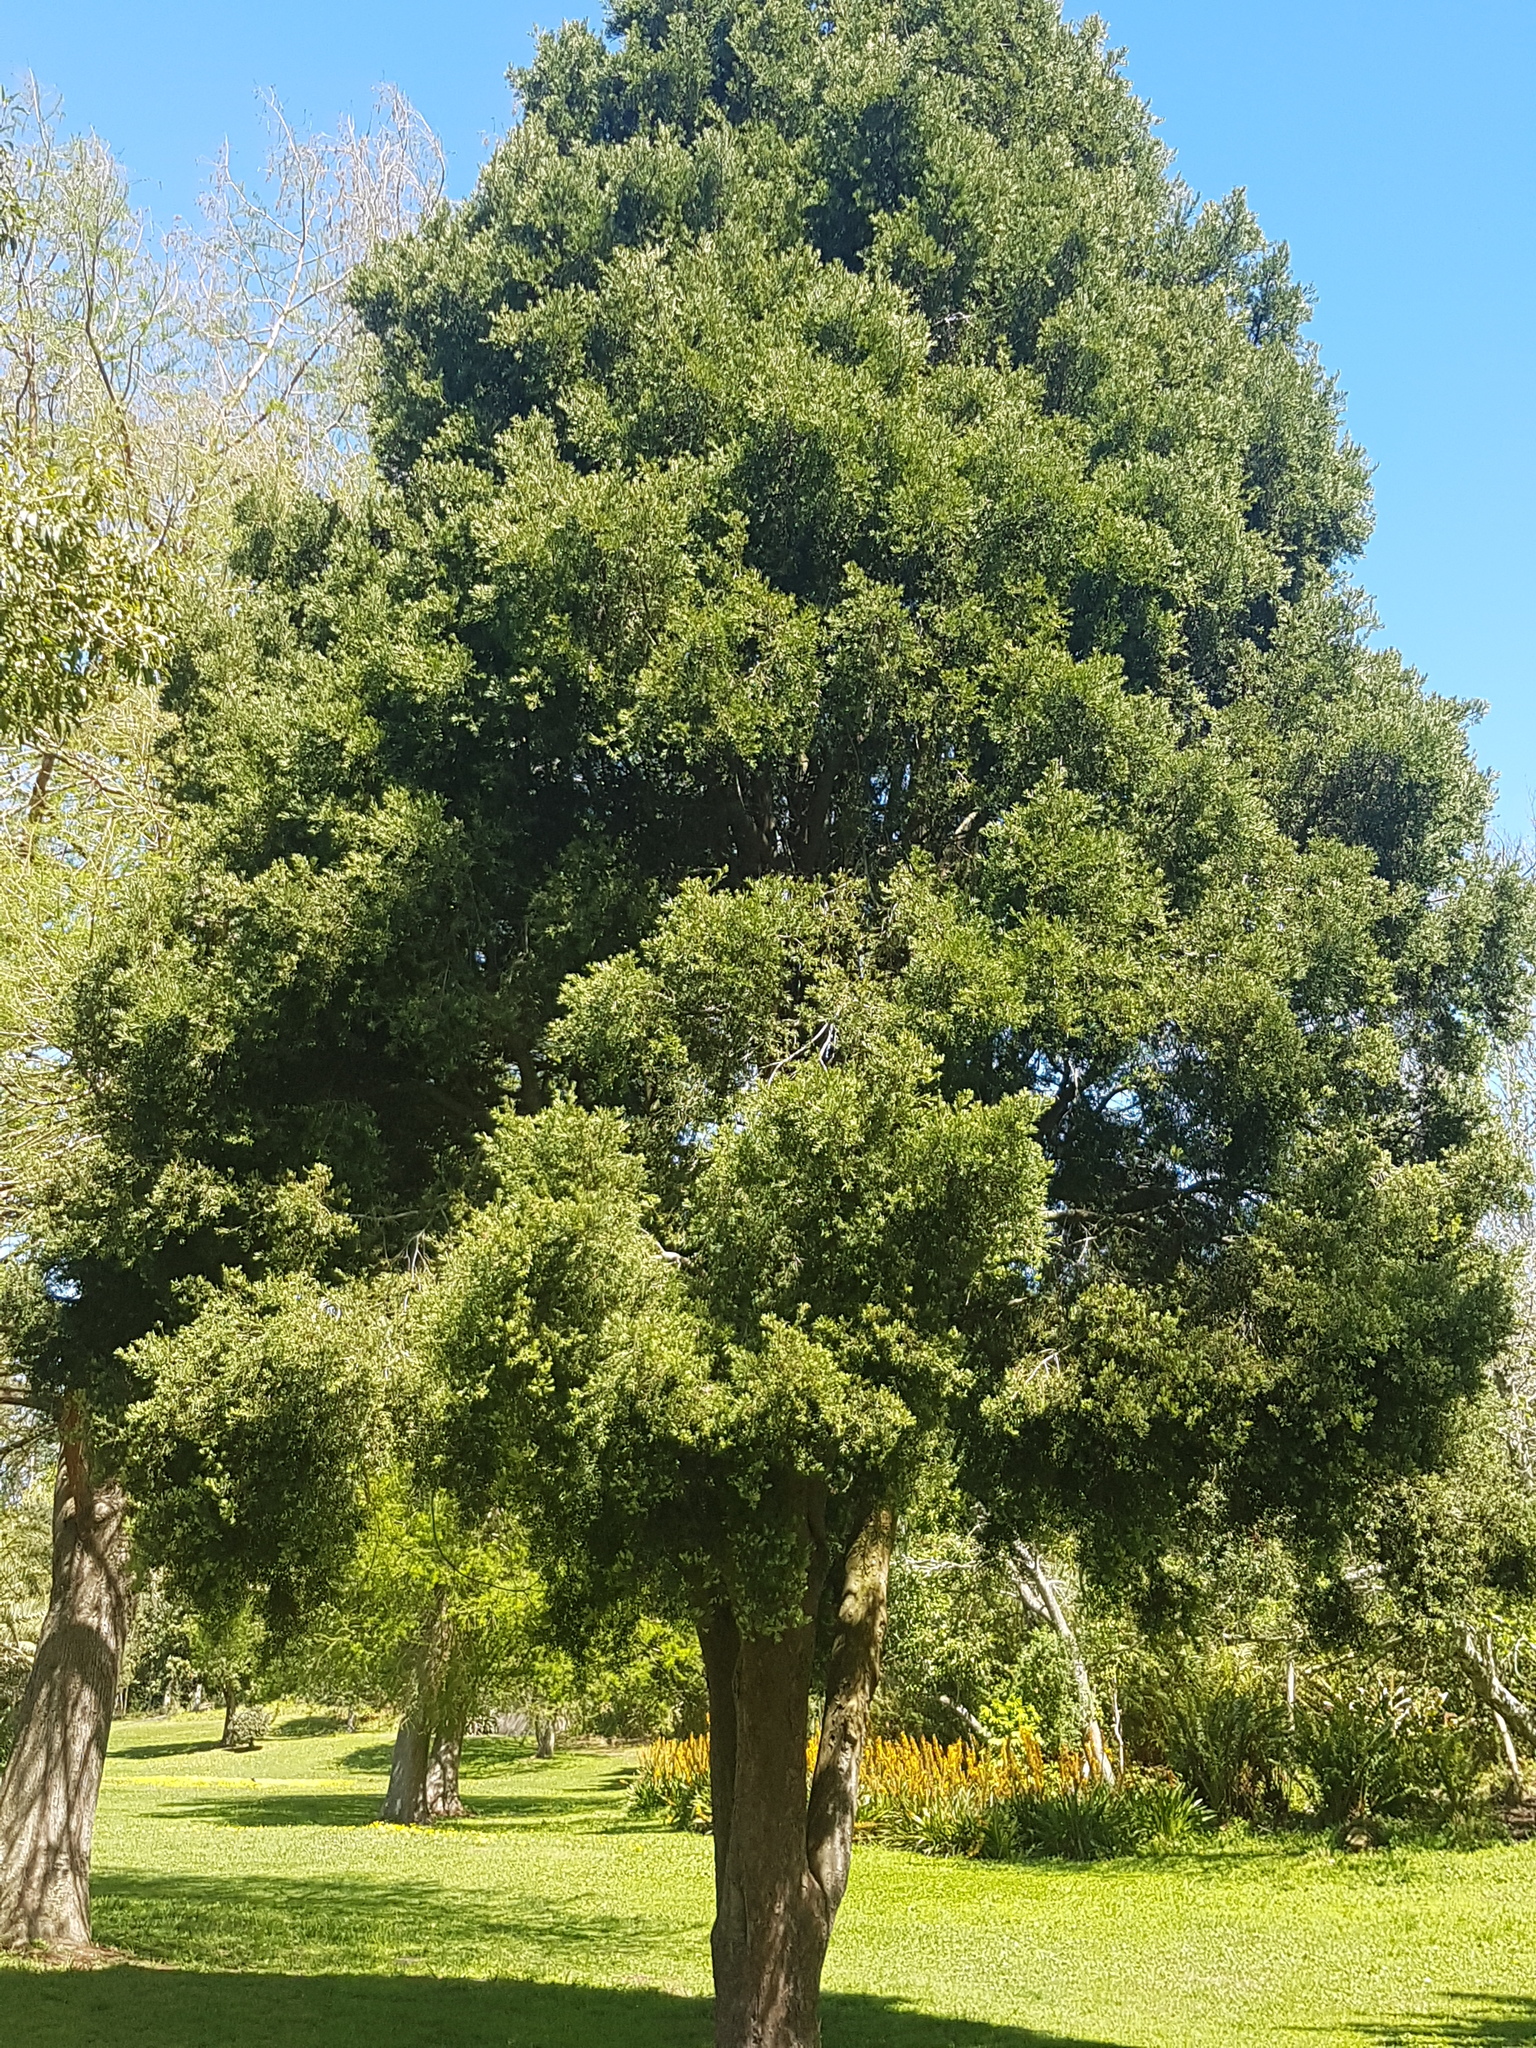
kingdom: Plantae
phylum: Tracheophyta
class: Pinopsida
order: Pinales
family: Podocarpaceae
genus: Afrocarpus
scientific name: Afrocarpus falcatus
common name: Bastard yellowwood
